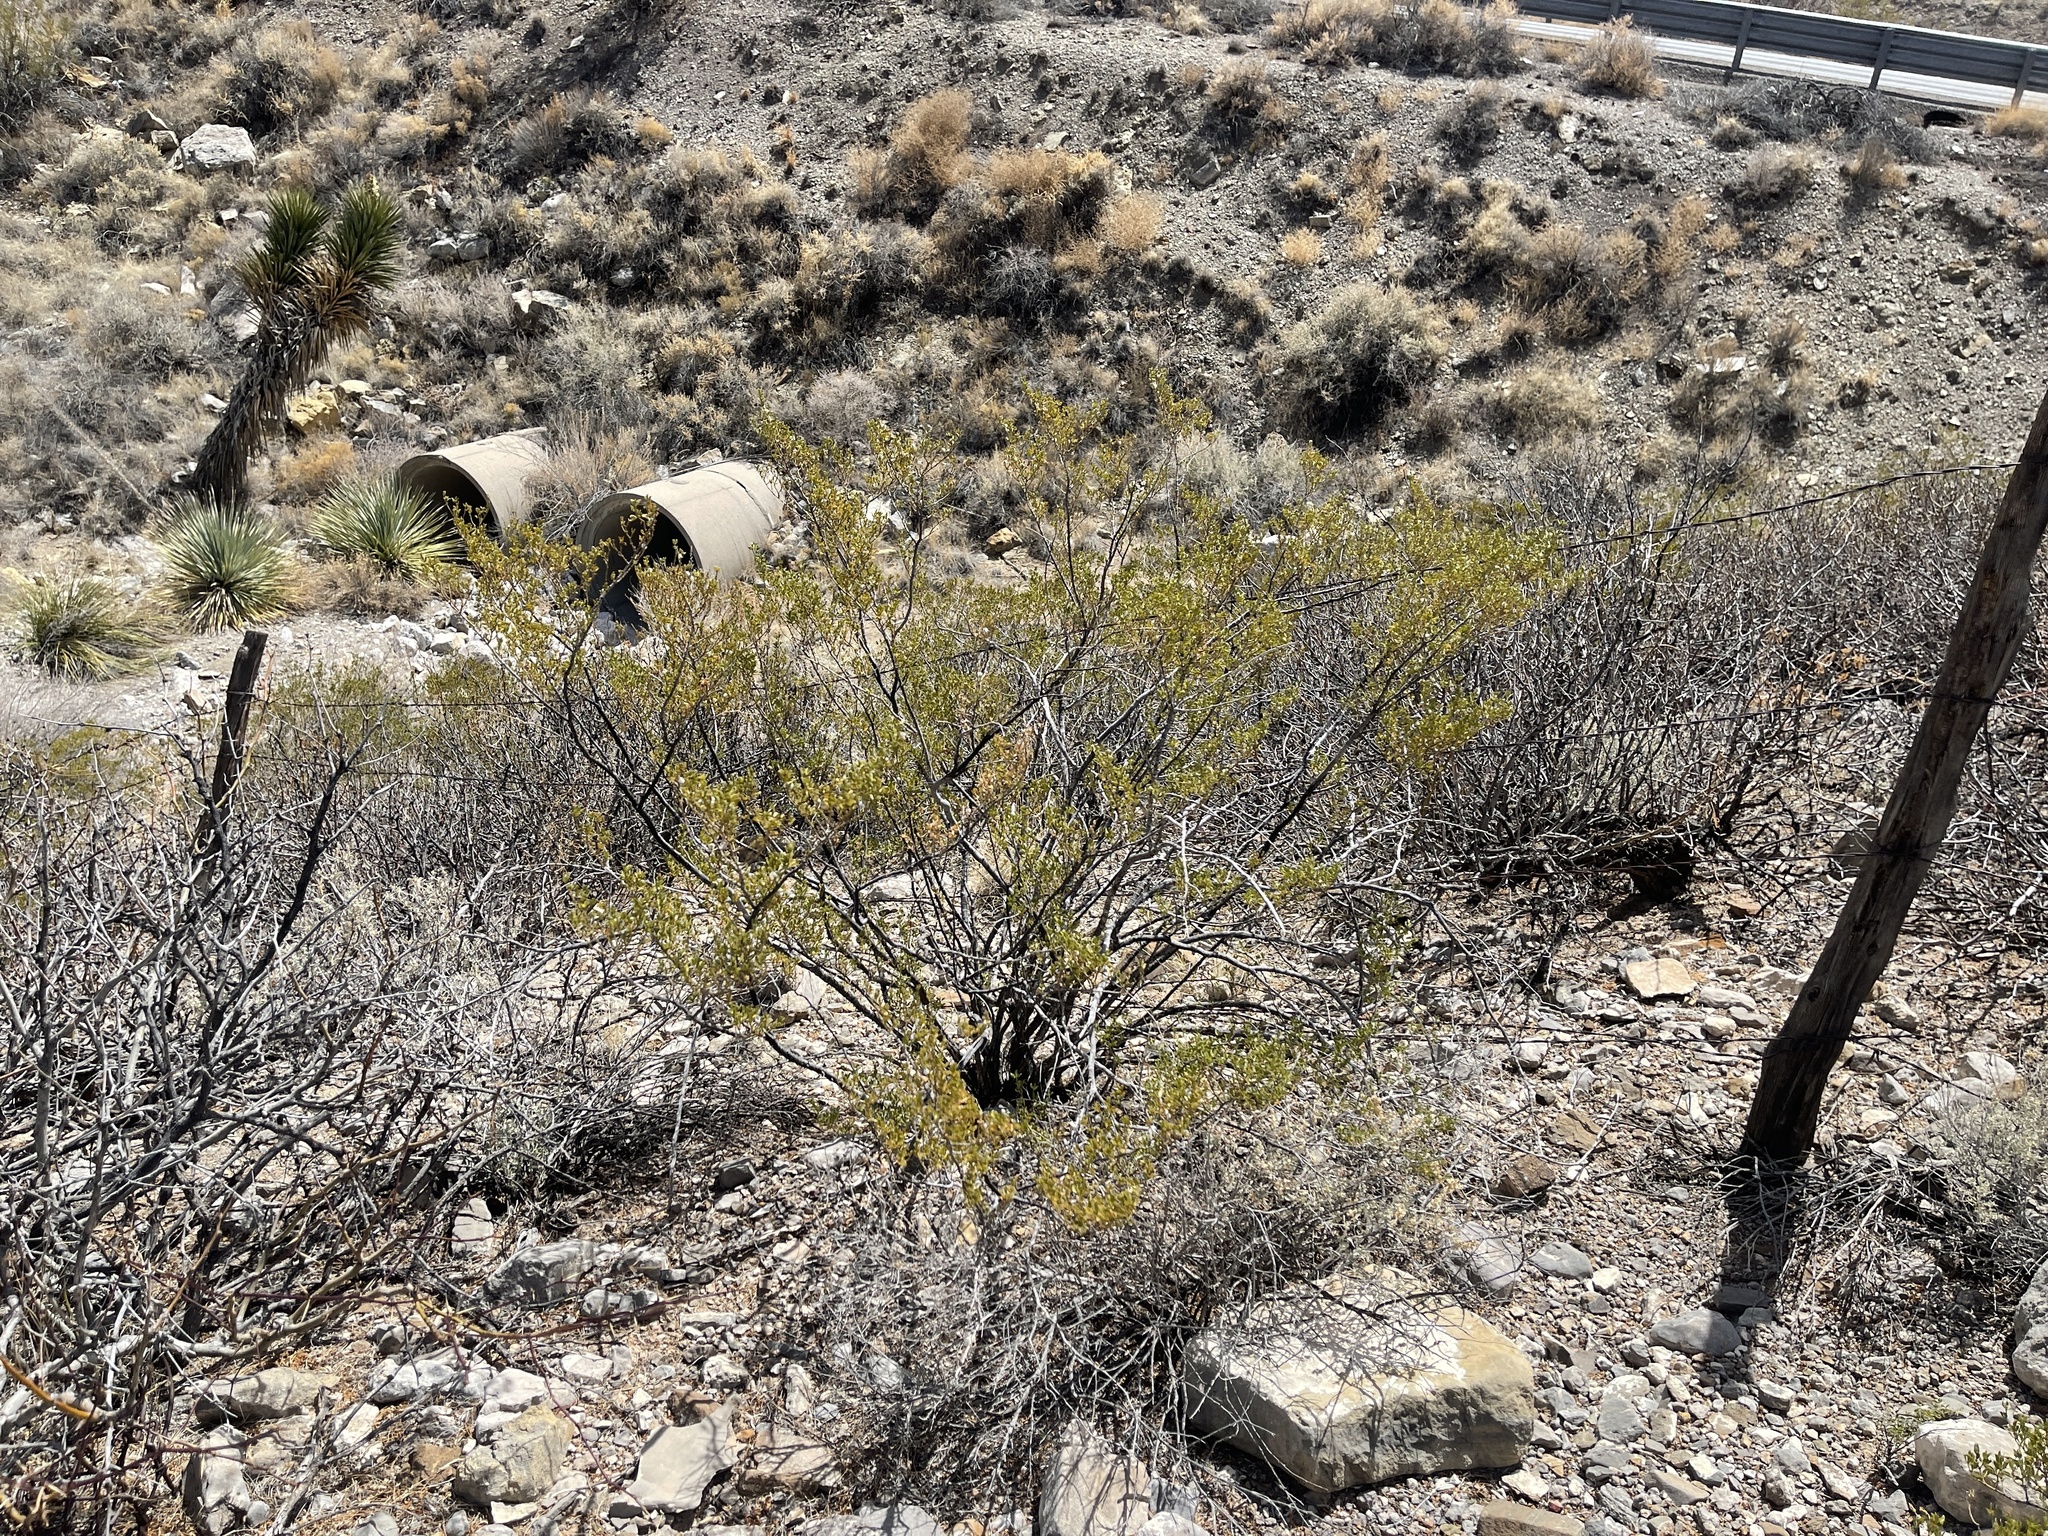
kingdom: Plantae
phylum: Tracheophyta
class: Magnoliopsida
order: Zygophyllales
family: Zygophyllaceae
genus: Larrea
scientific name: Larrea tridentata
